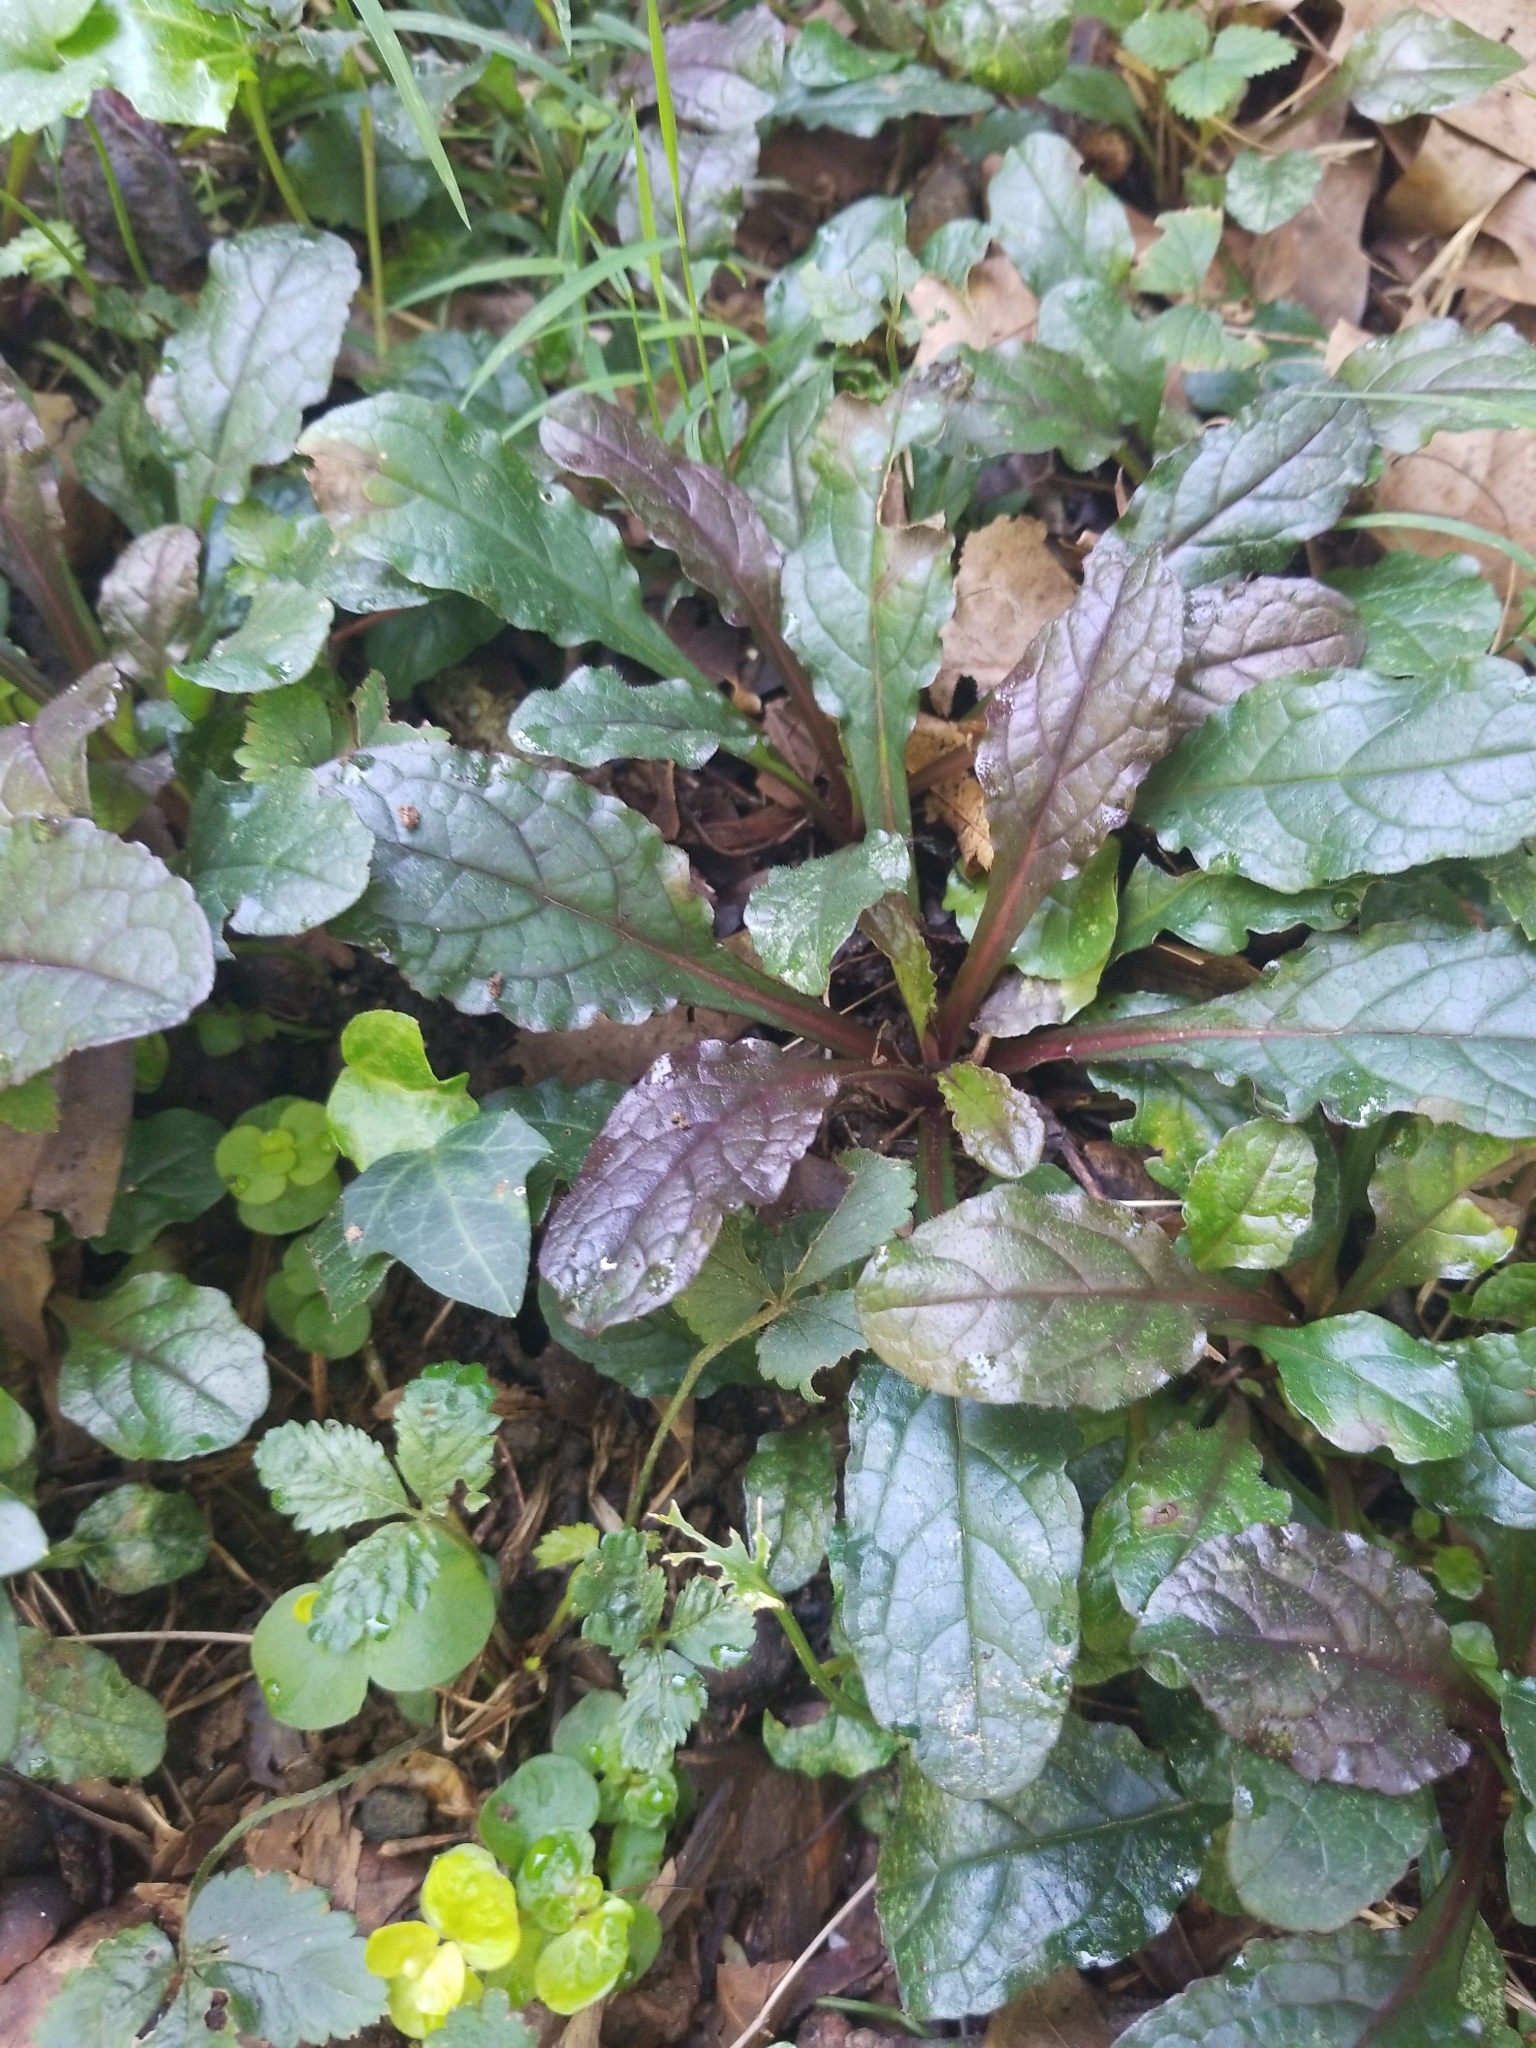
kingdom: Plantae
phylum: Tracheophyta
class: Magnoliopsida
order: Lamiales
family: Lamiaceae
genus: Ajuga
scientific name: Ajuga reptans
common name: Bugle
